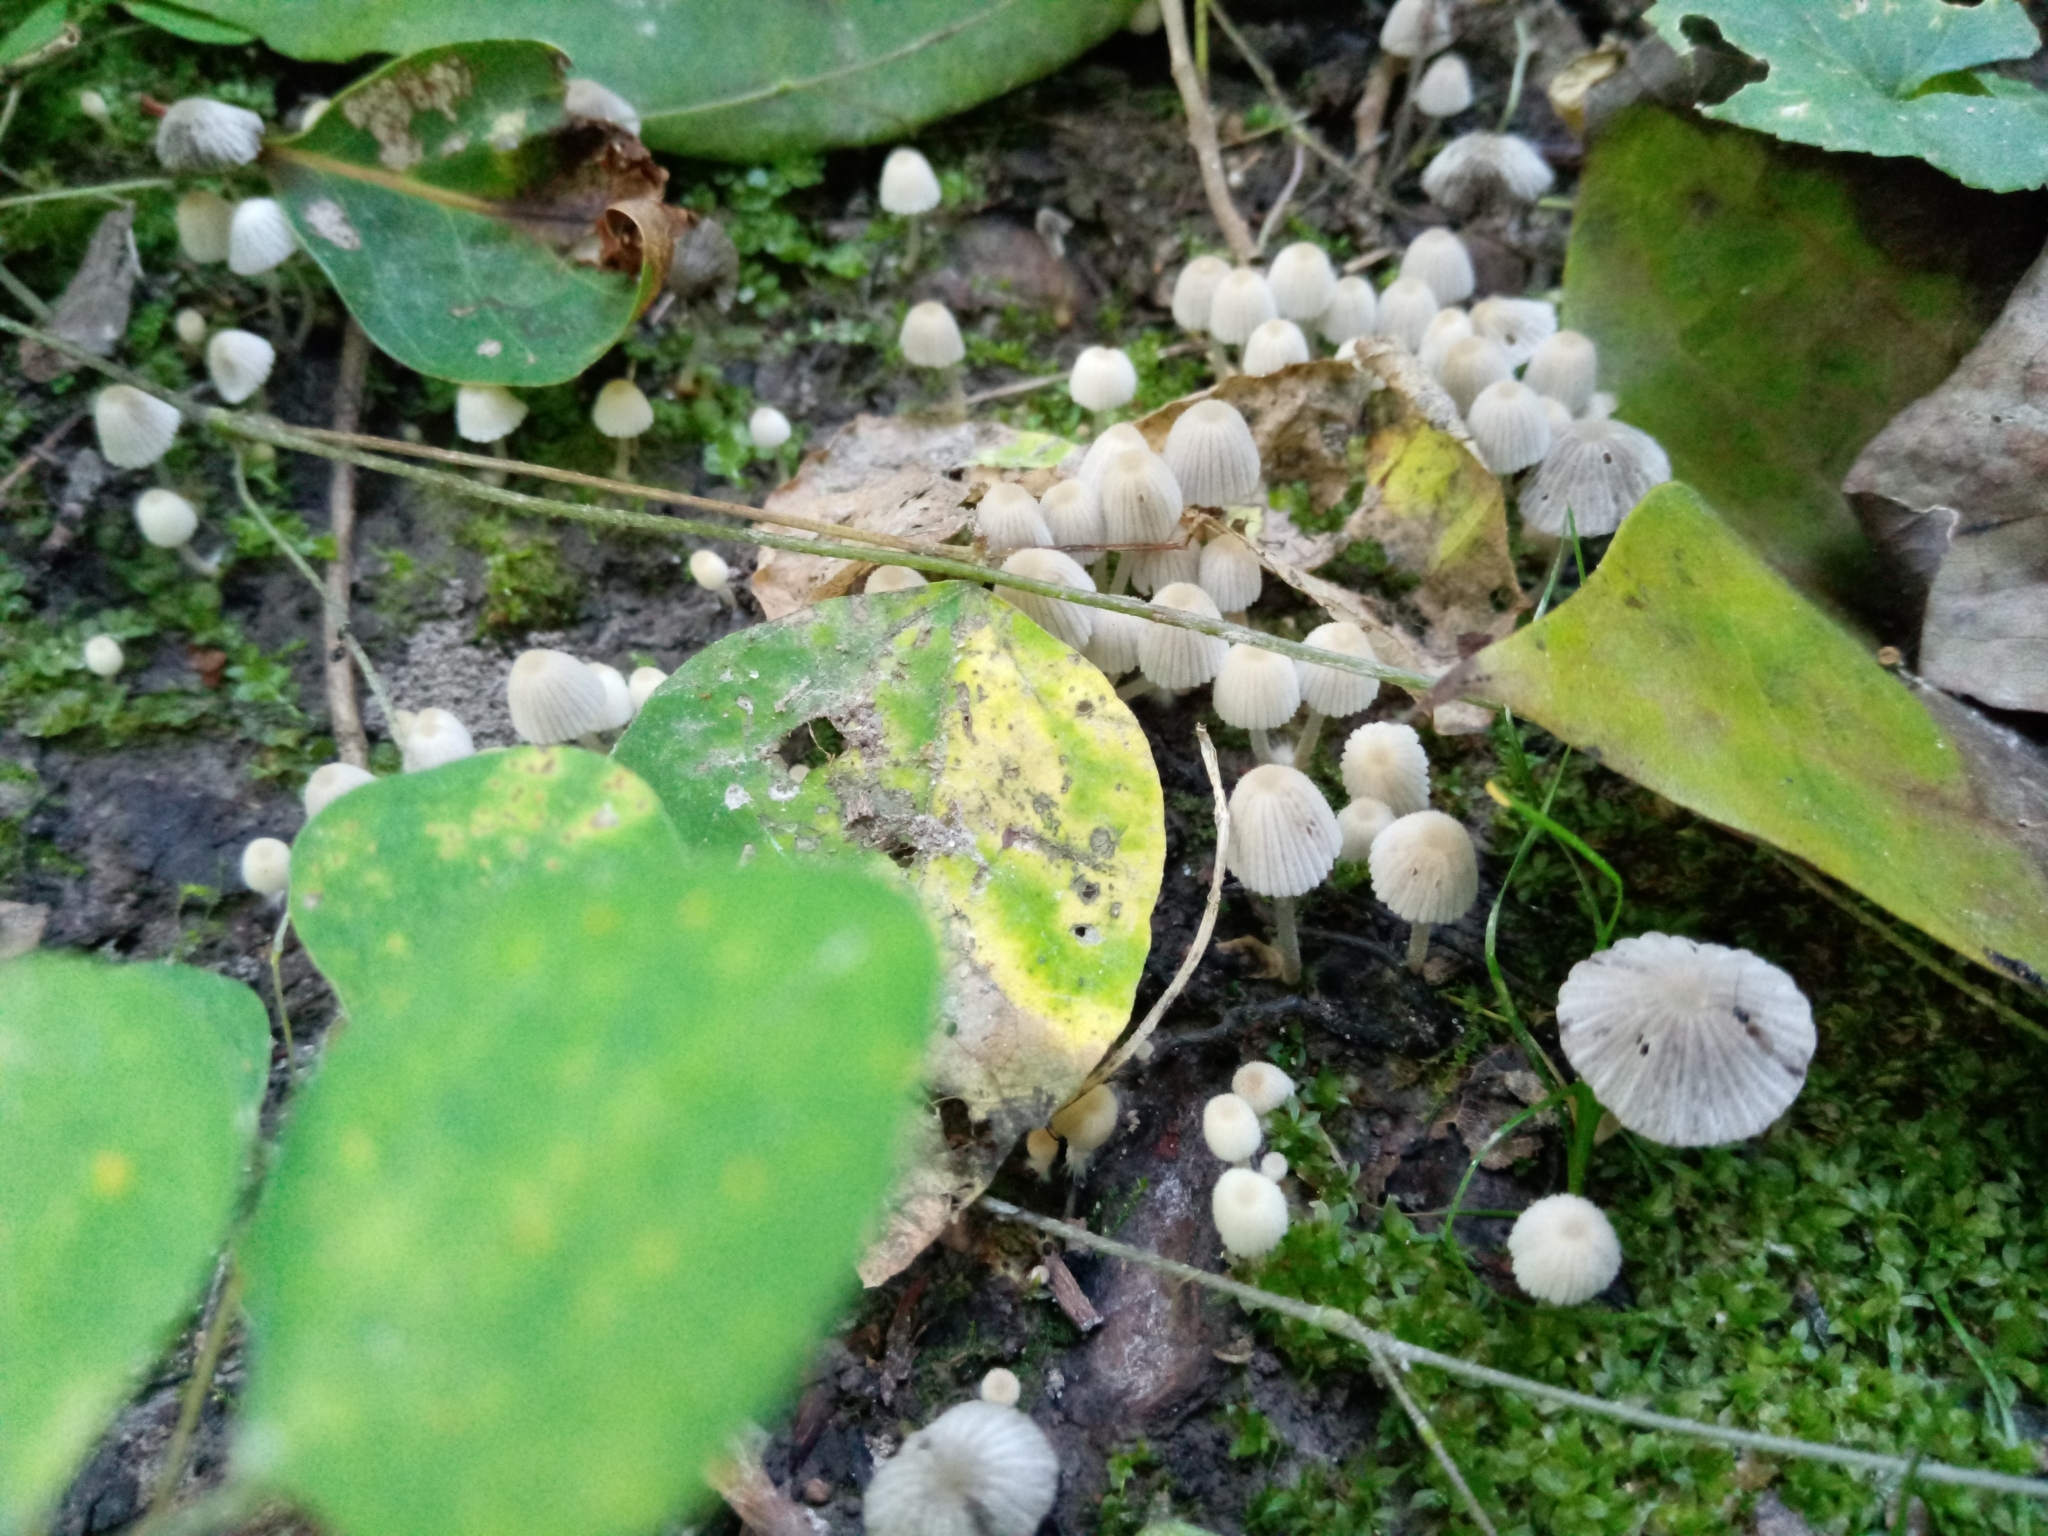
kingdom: Fungi
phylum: Basidiomycota
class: Agaricomycetes
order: Agaricales
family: Psathyrellaceae
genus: Coprinellus
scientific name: Coprinellus disseminatus
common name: Fairies' bonnets
